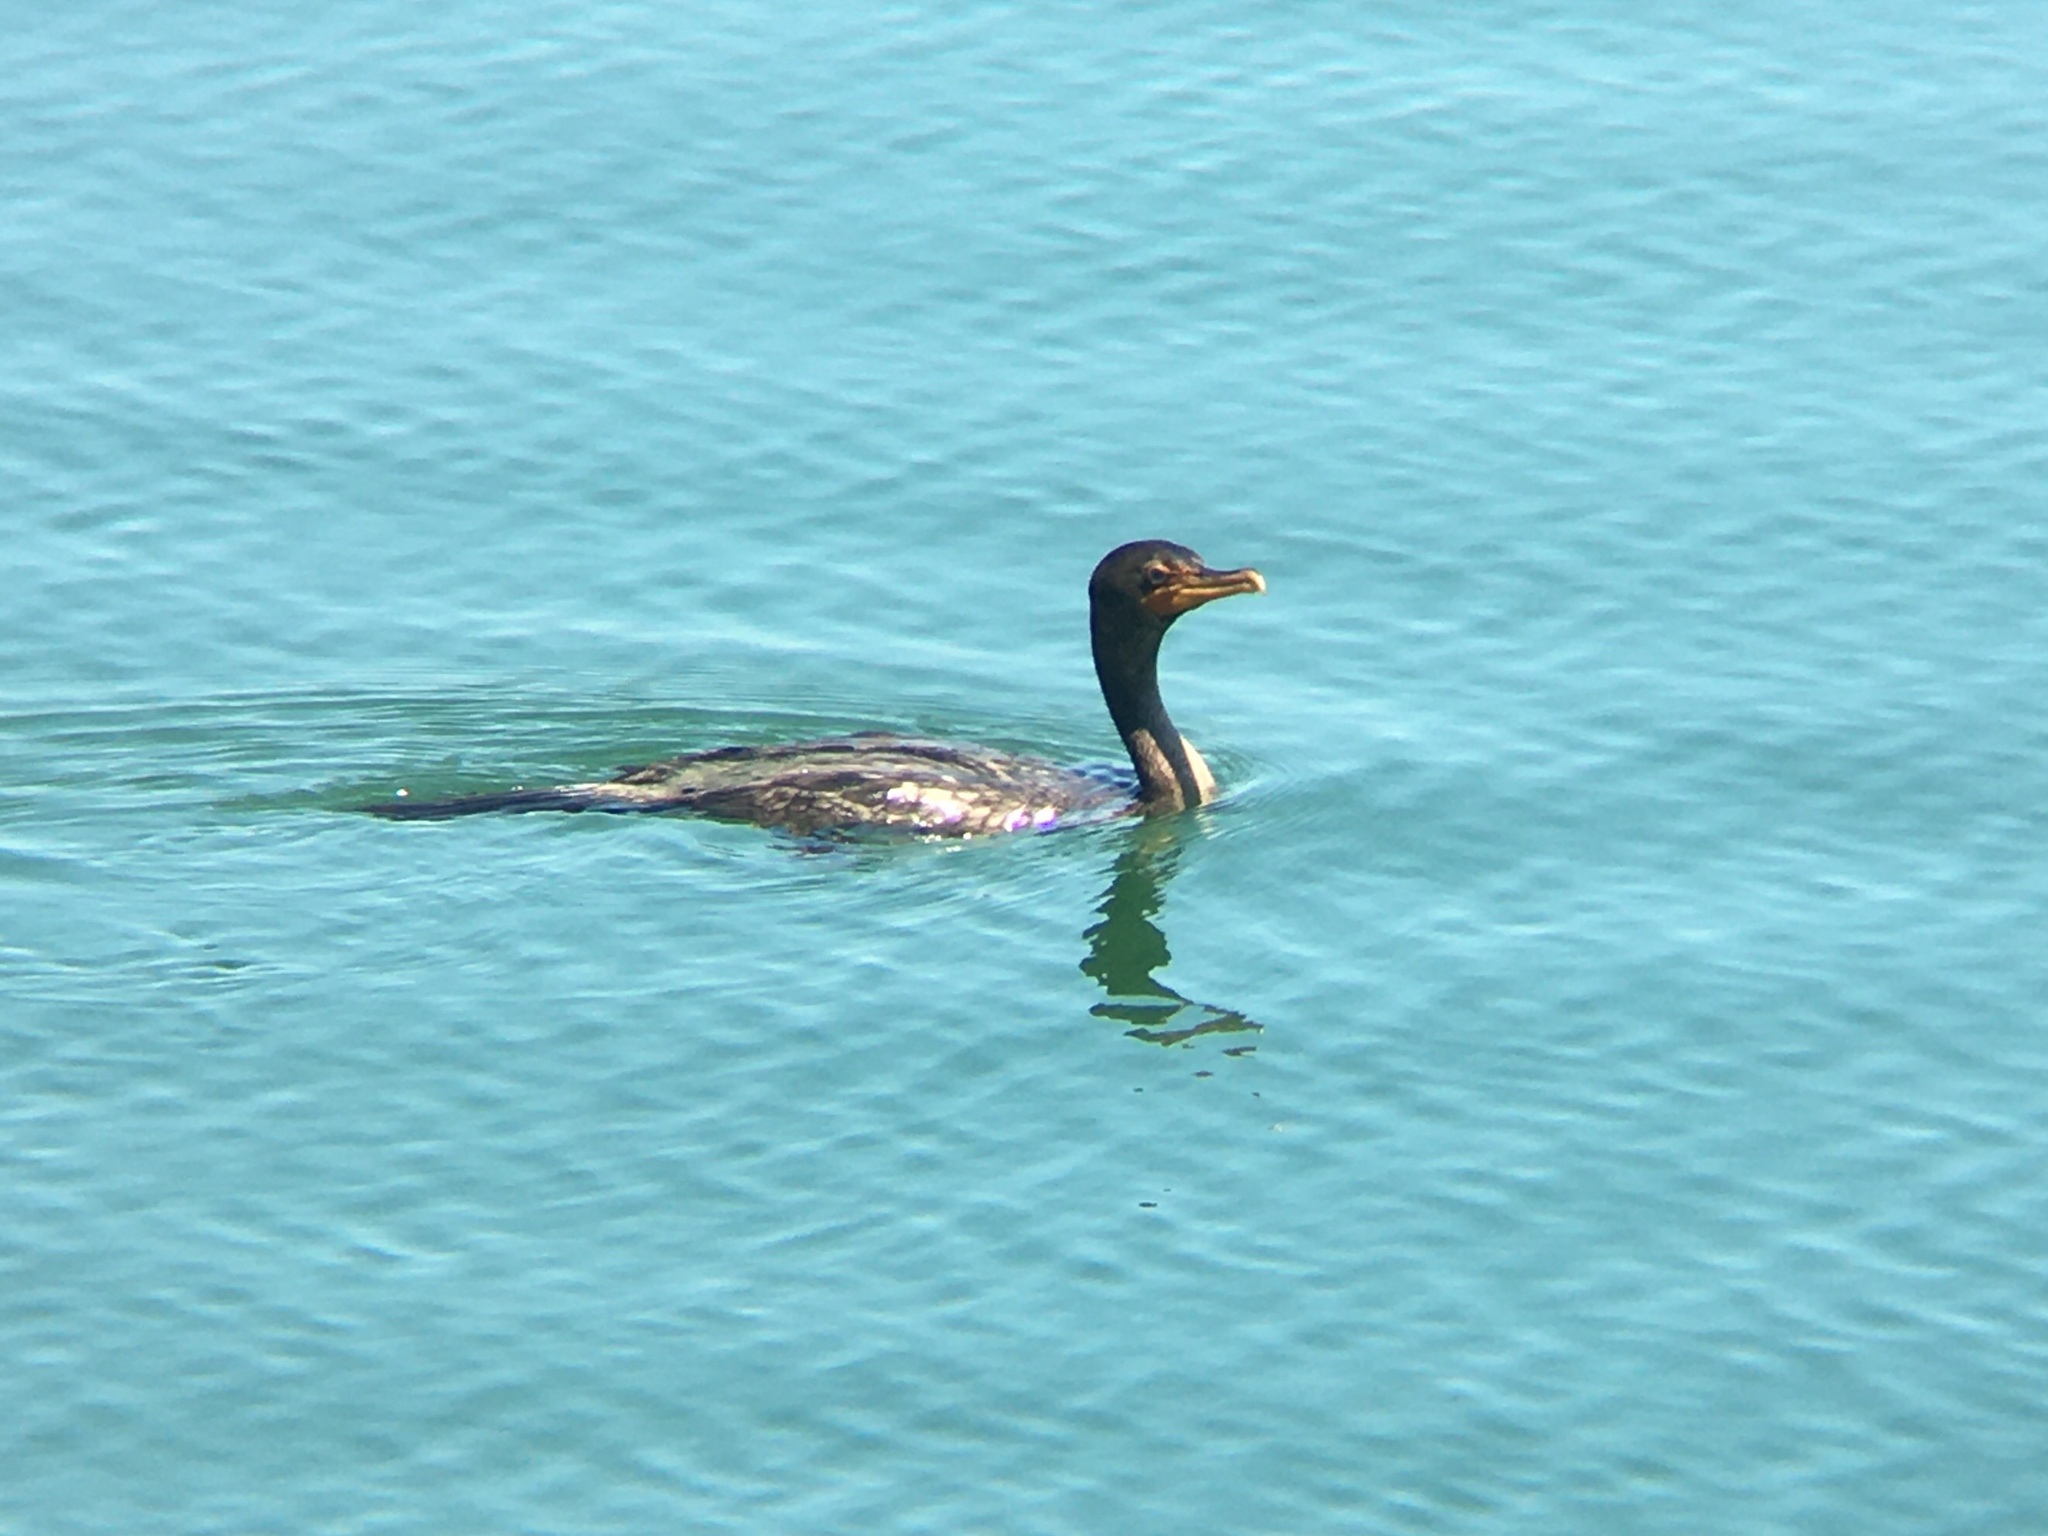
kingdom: Animalia
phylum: Chordata
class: Aves
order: Suliformes
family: Phalacrocoracidae
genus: Phalacrocorax
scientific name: Phalacrocorax auritus
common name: Double-crested cormorant
